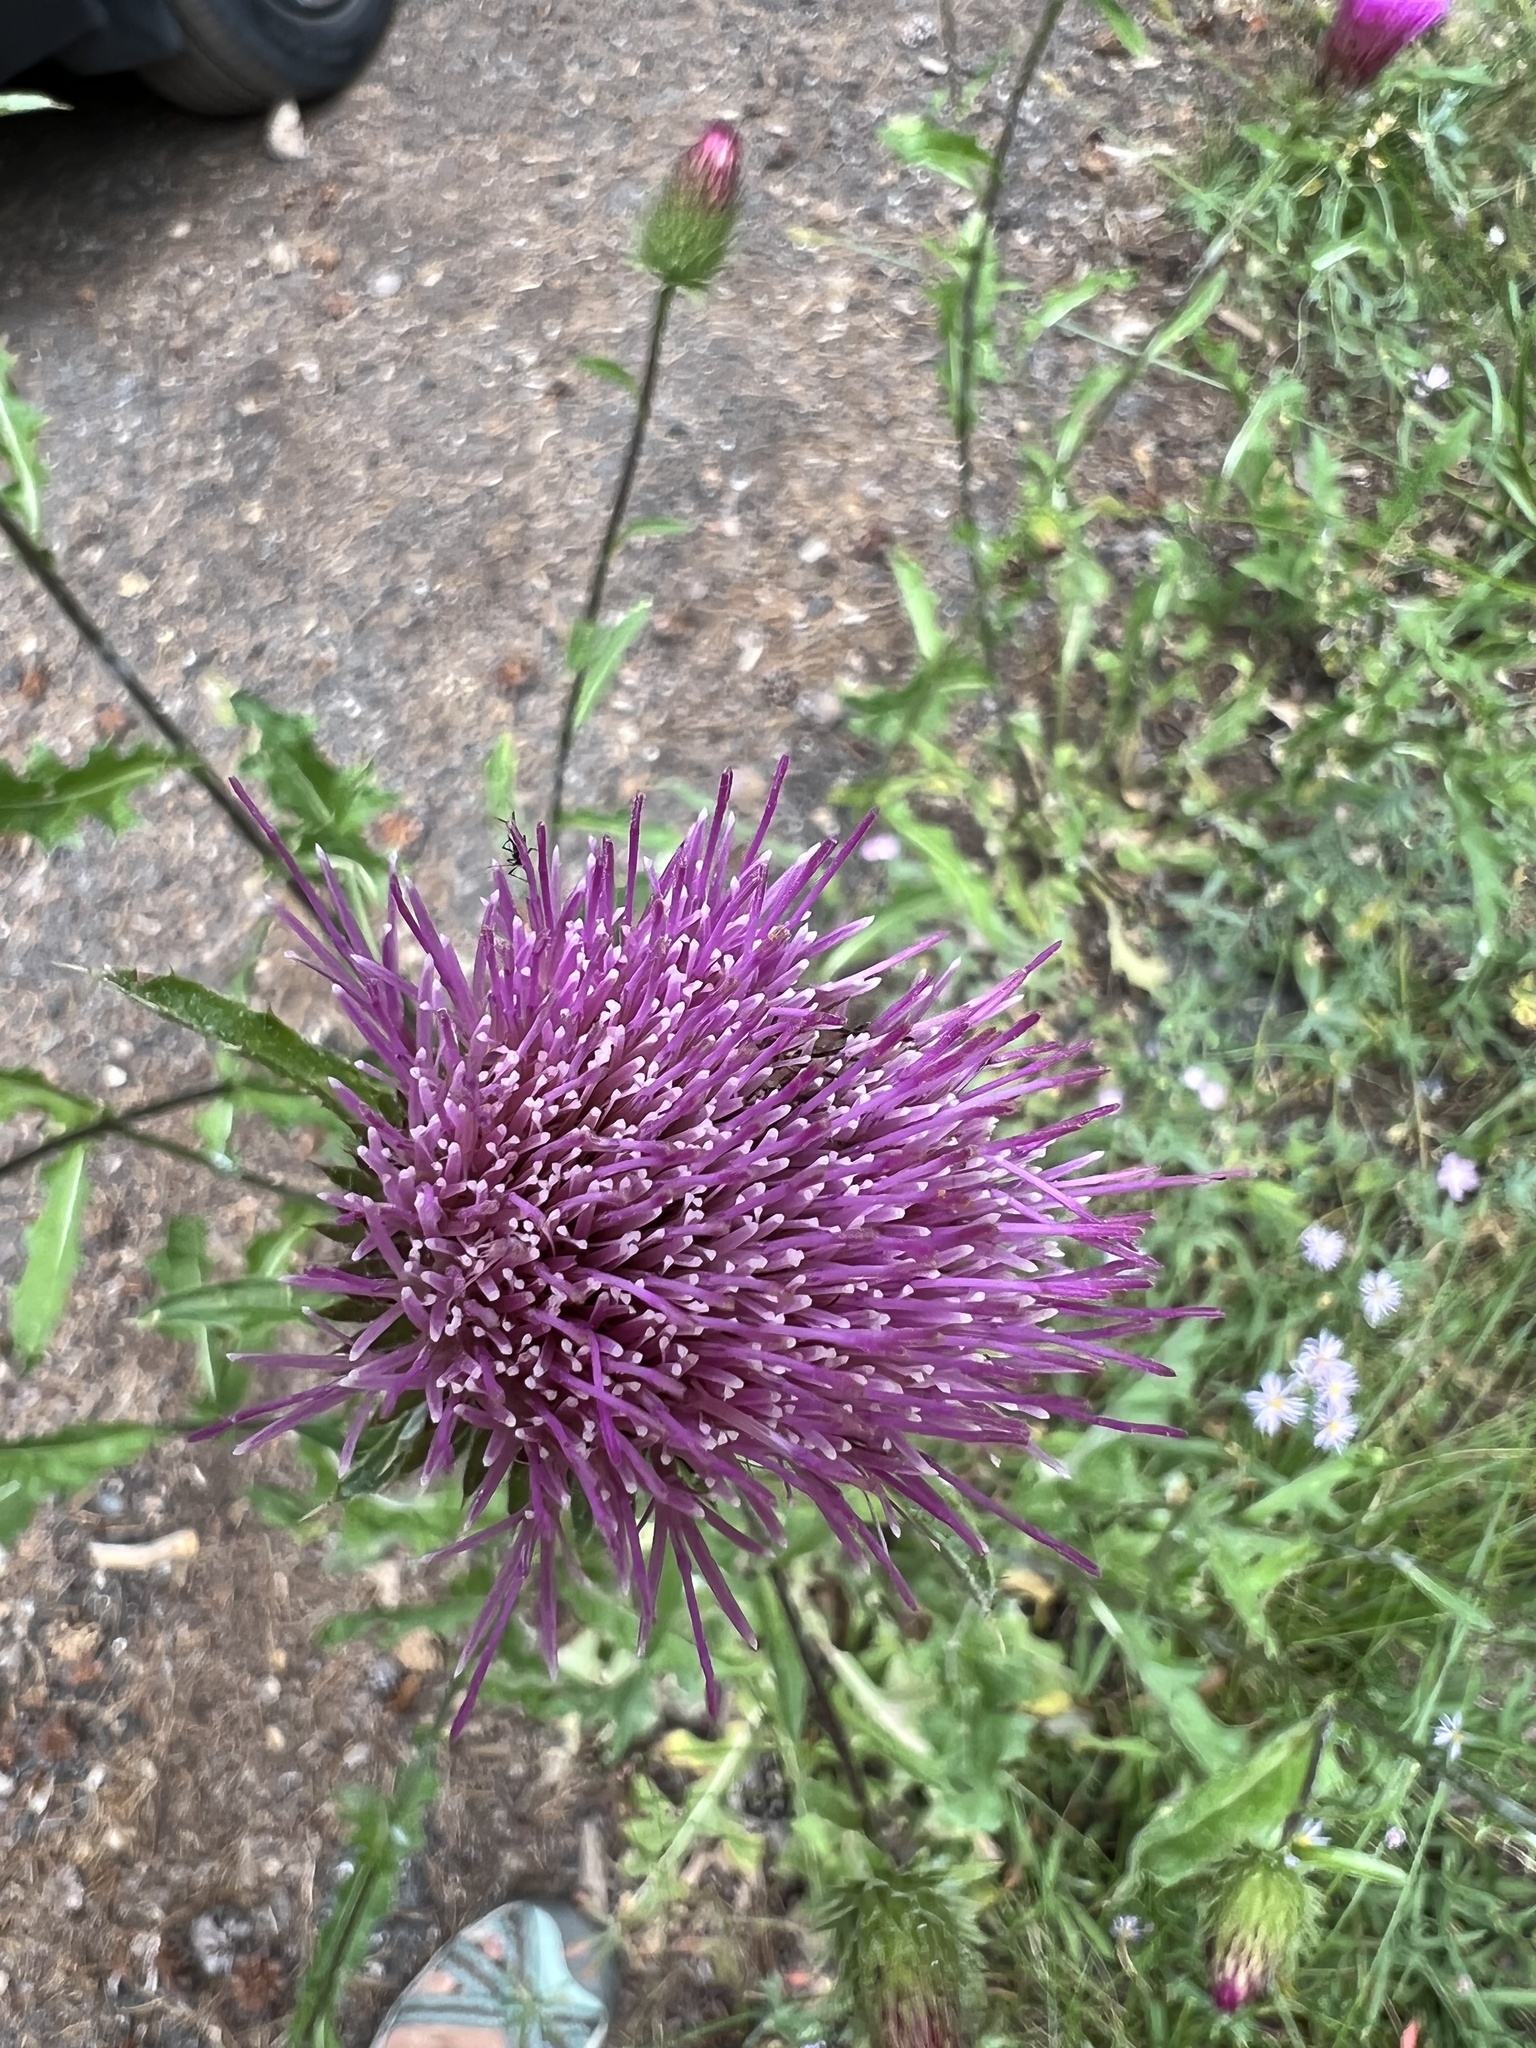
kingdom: Plantae
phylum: Tracheophyta
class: Magnoliopsida
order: Asterales
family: Asteraceae
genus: Cirsium
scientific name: Cirsium andersonii
